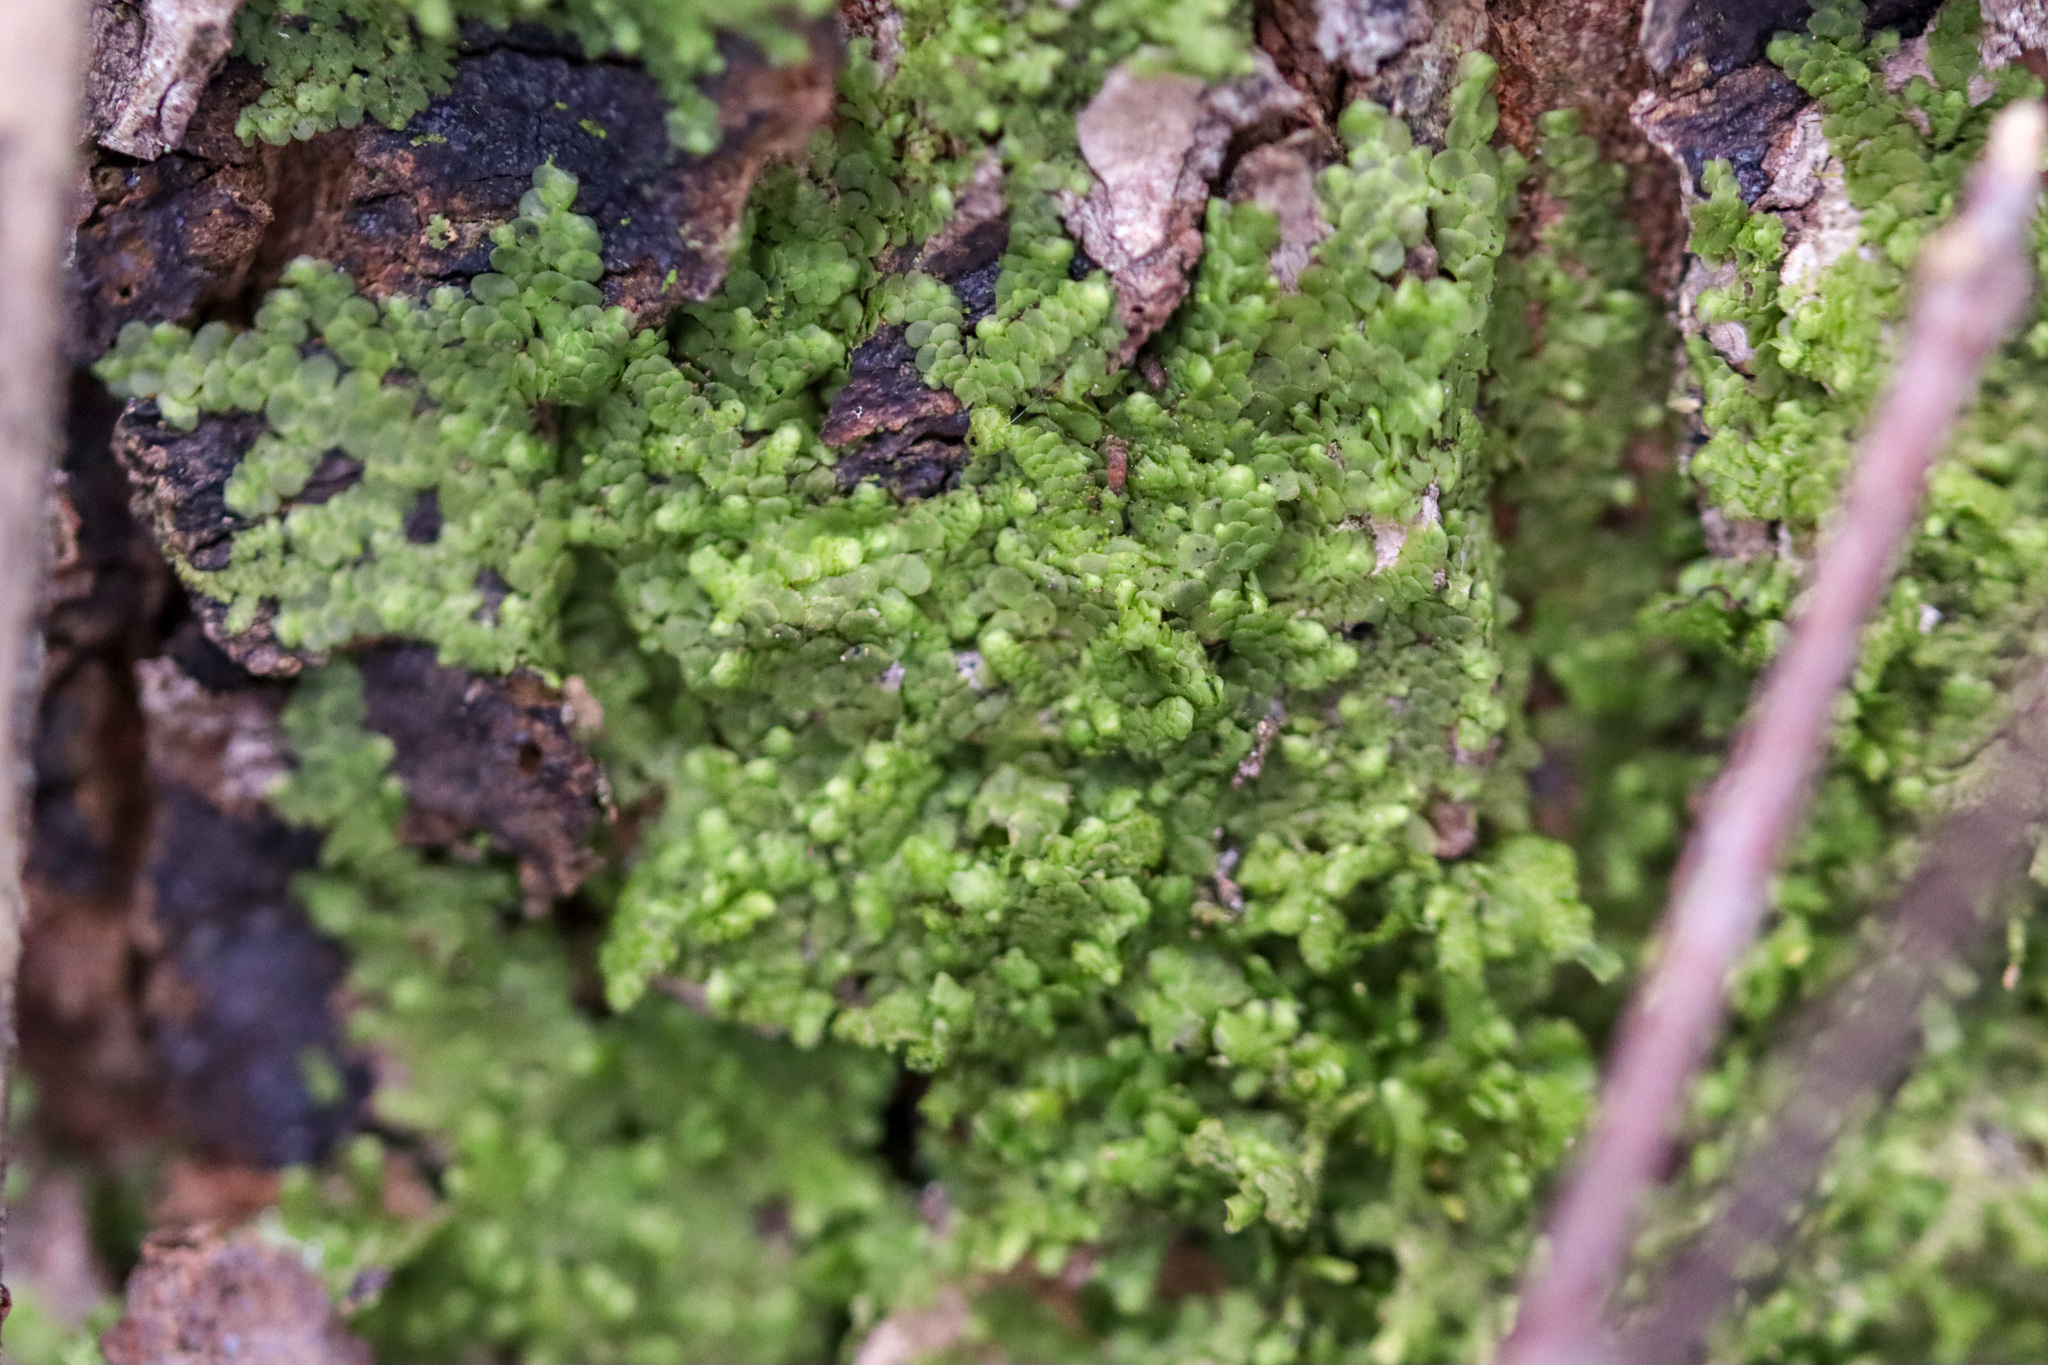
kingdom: Plantae
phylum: Marchantiophyta
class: Jungermanniopsida
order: Porellales
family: Radulaceae
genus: Radula
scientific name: Radula complanata
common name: Flat-leaved scalewort
